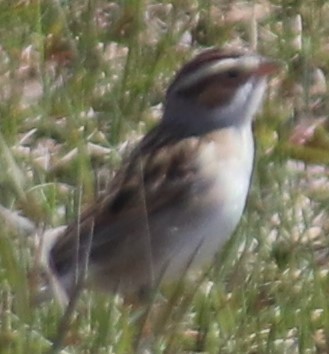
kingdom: Animalia
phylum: Chordata
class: Aves
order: Passeriformes
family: Passerellidae
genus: Spizella
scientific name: Spizella pallida
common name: Clay-colored sparrow
